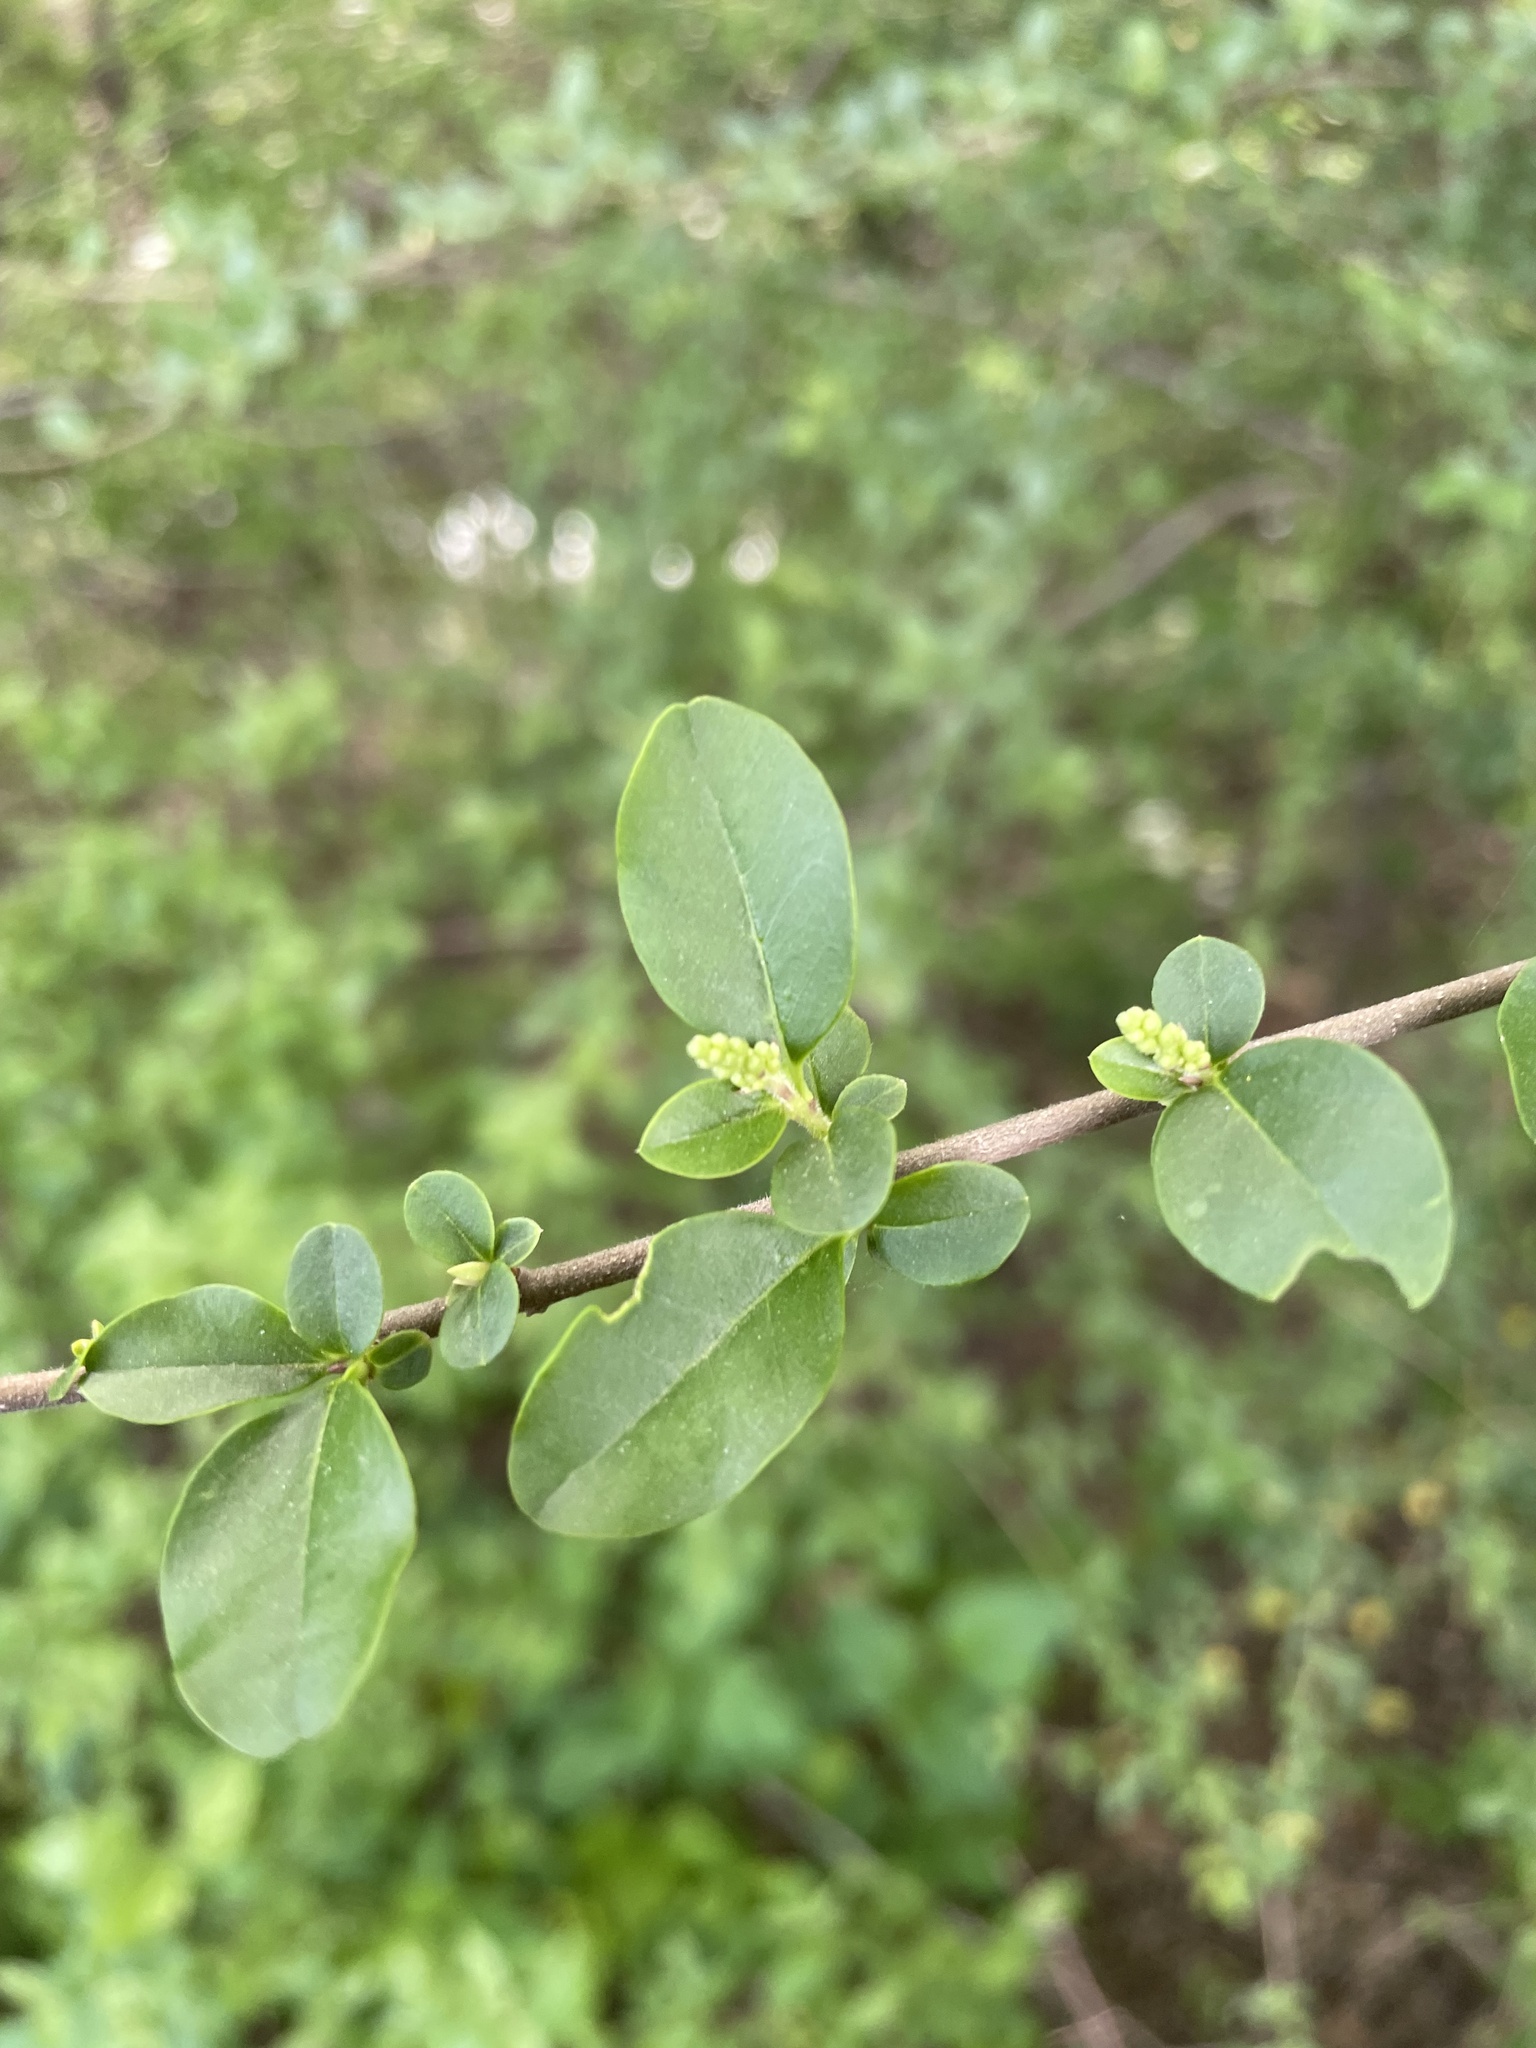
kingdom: Plantae
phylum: Tracheophyta
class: Magnoliopsida
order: Lamiales
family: Oleaceae
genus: Ligustrum
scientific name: Ligustrum sinense
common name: Chinese privet
